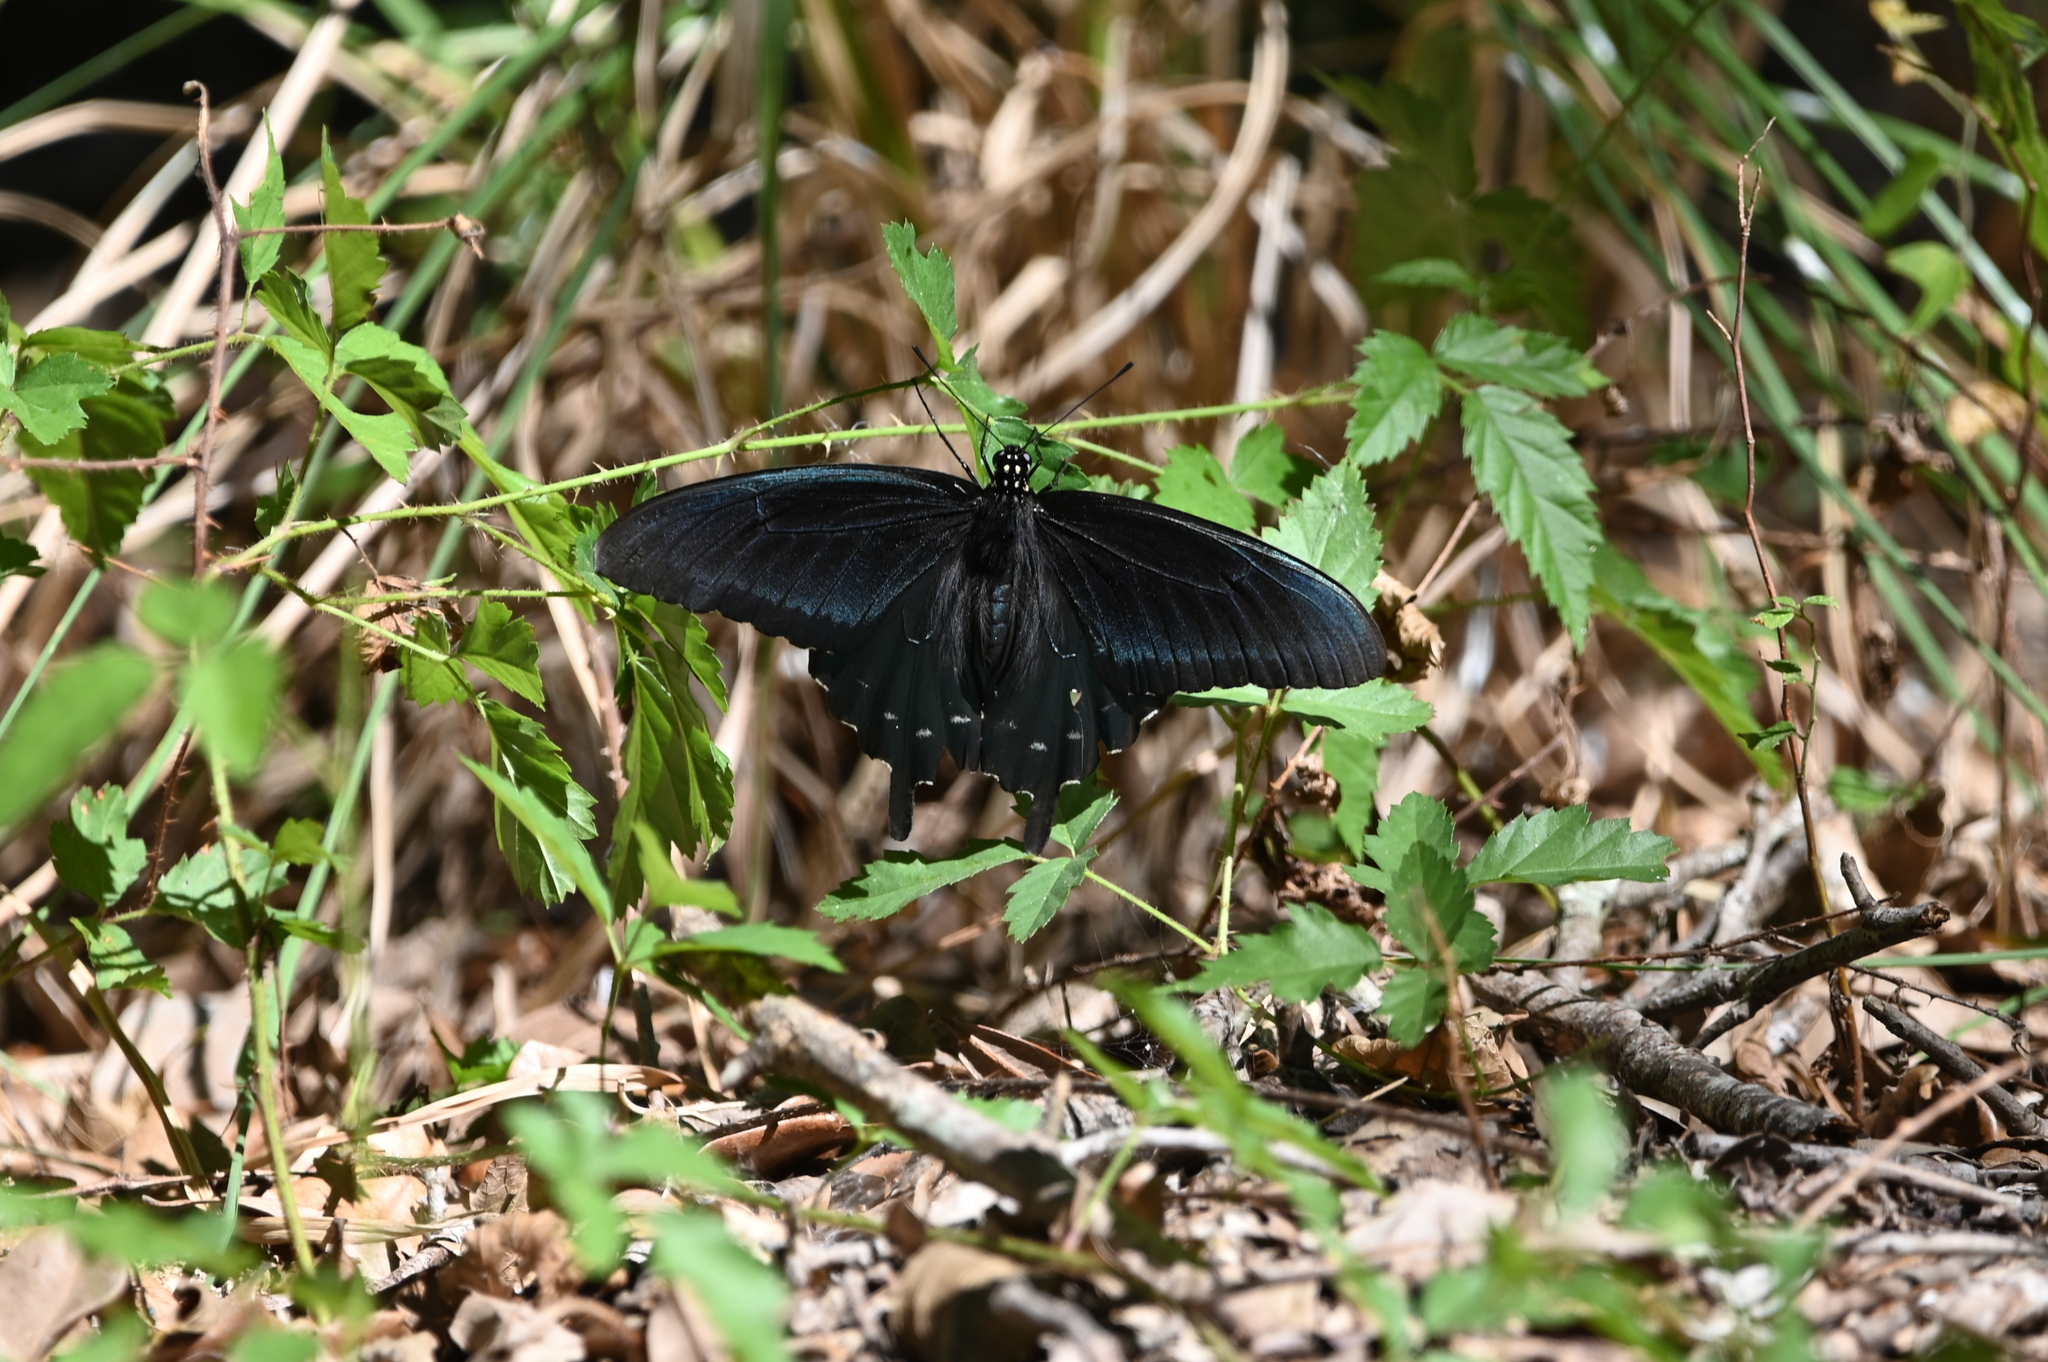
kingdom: Animalia
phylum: Arthropoda
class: Insecta
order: Lepidoptera
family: Papilionidae
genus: Battus
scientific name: Battus philenor
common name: Pipevine swallowtail
